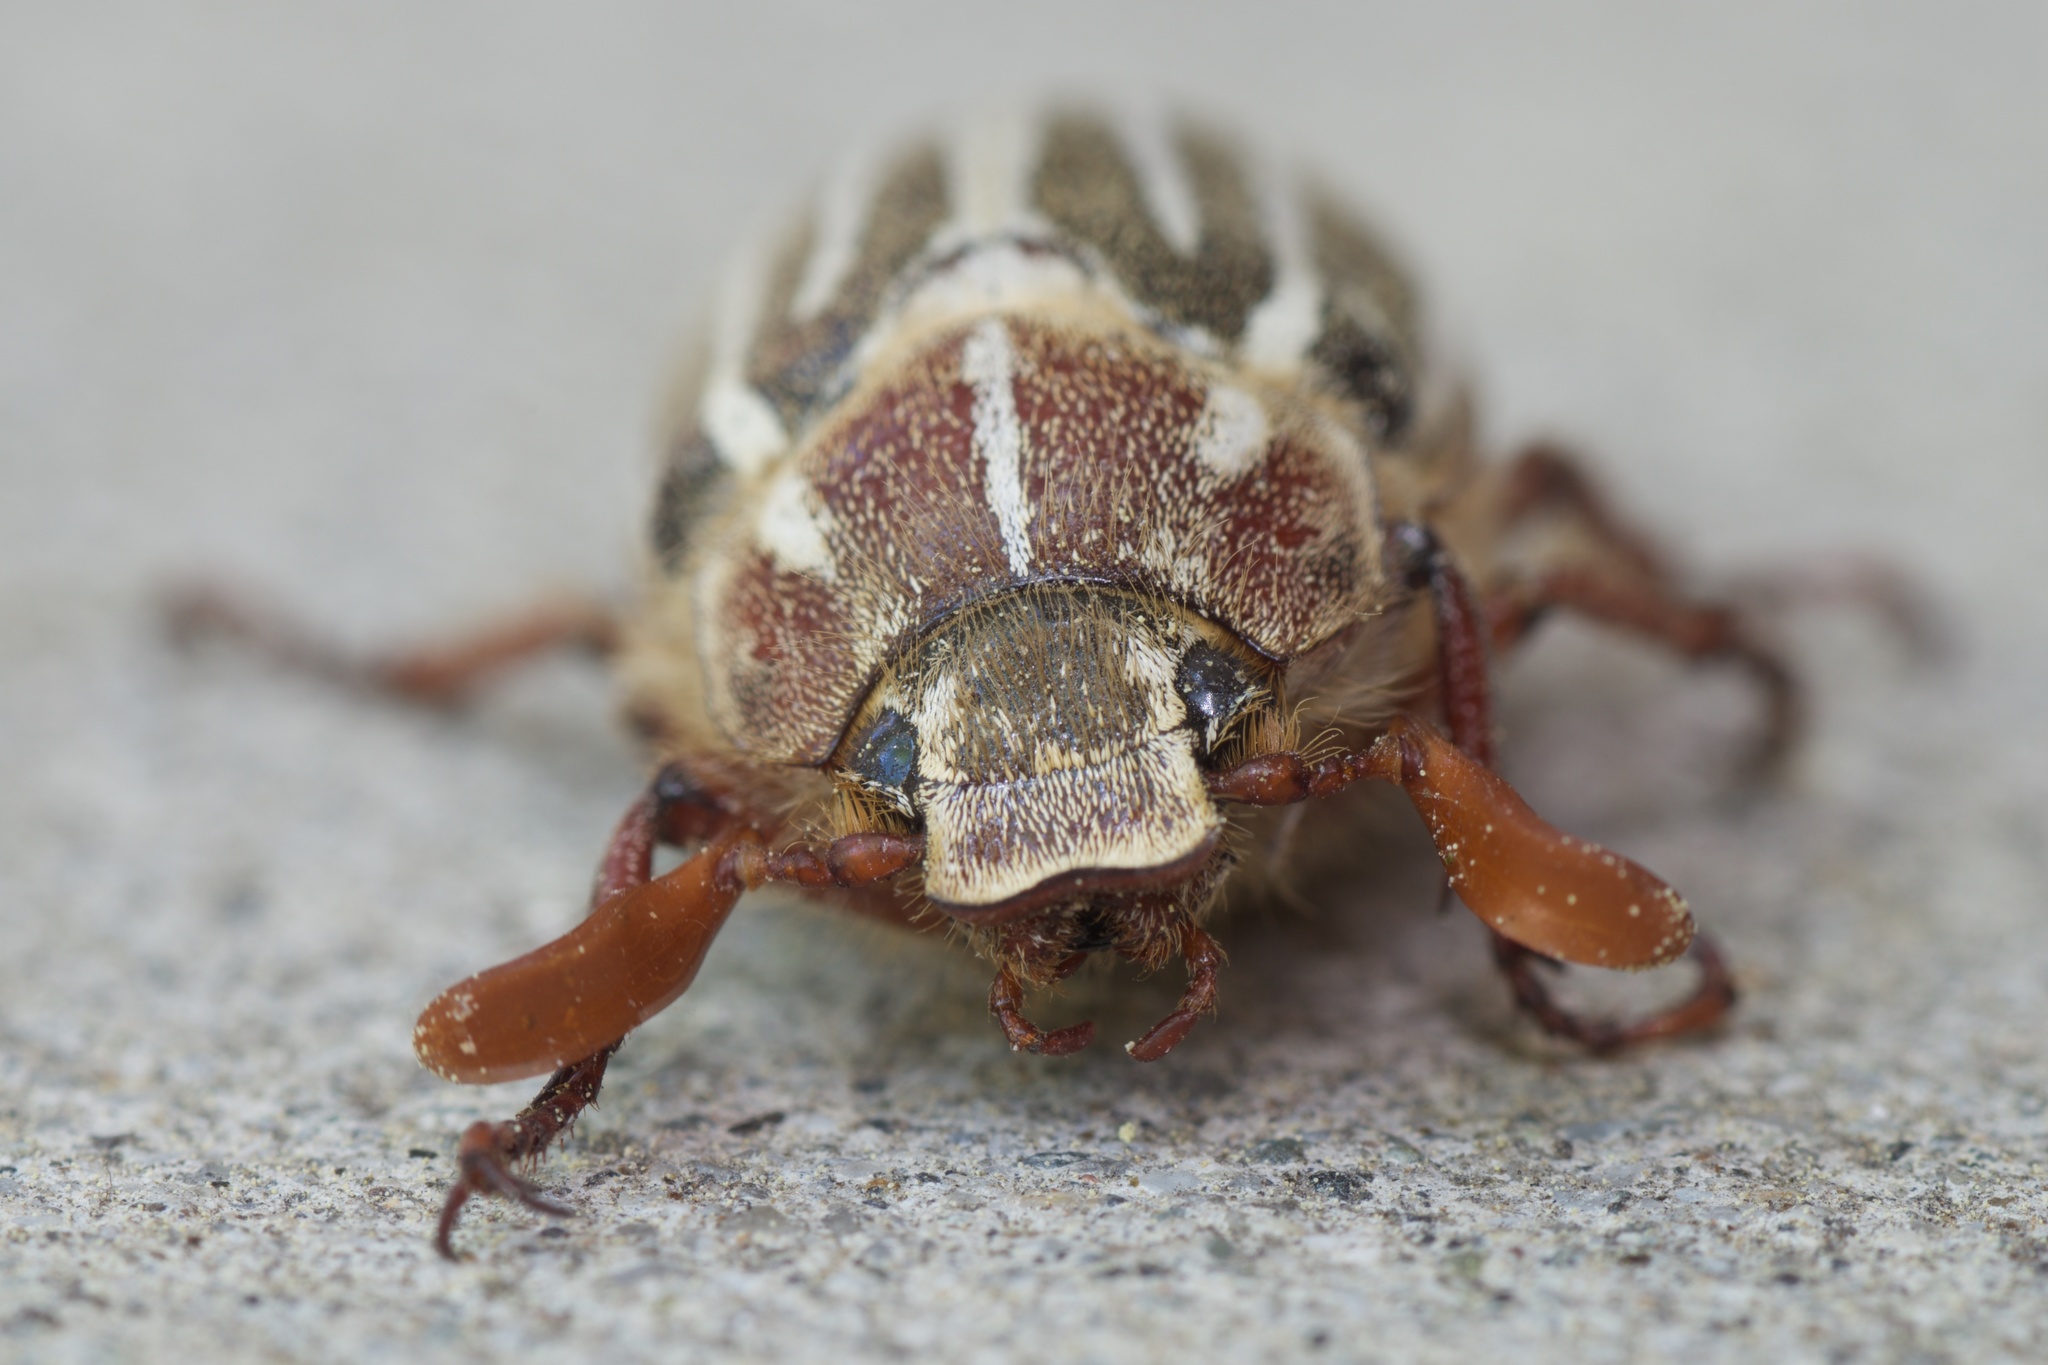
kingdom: Animalia
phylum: Arthropoda
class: Insecta
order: Coleoptera
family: Scarabaeidae
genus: Polyphylla
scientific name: Polyphylla decemlineata
